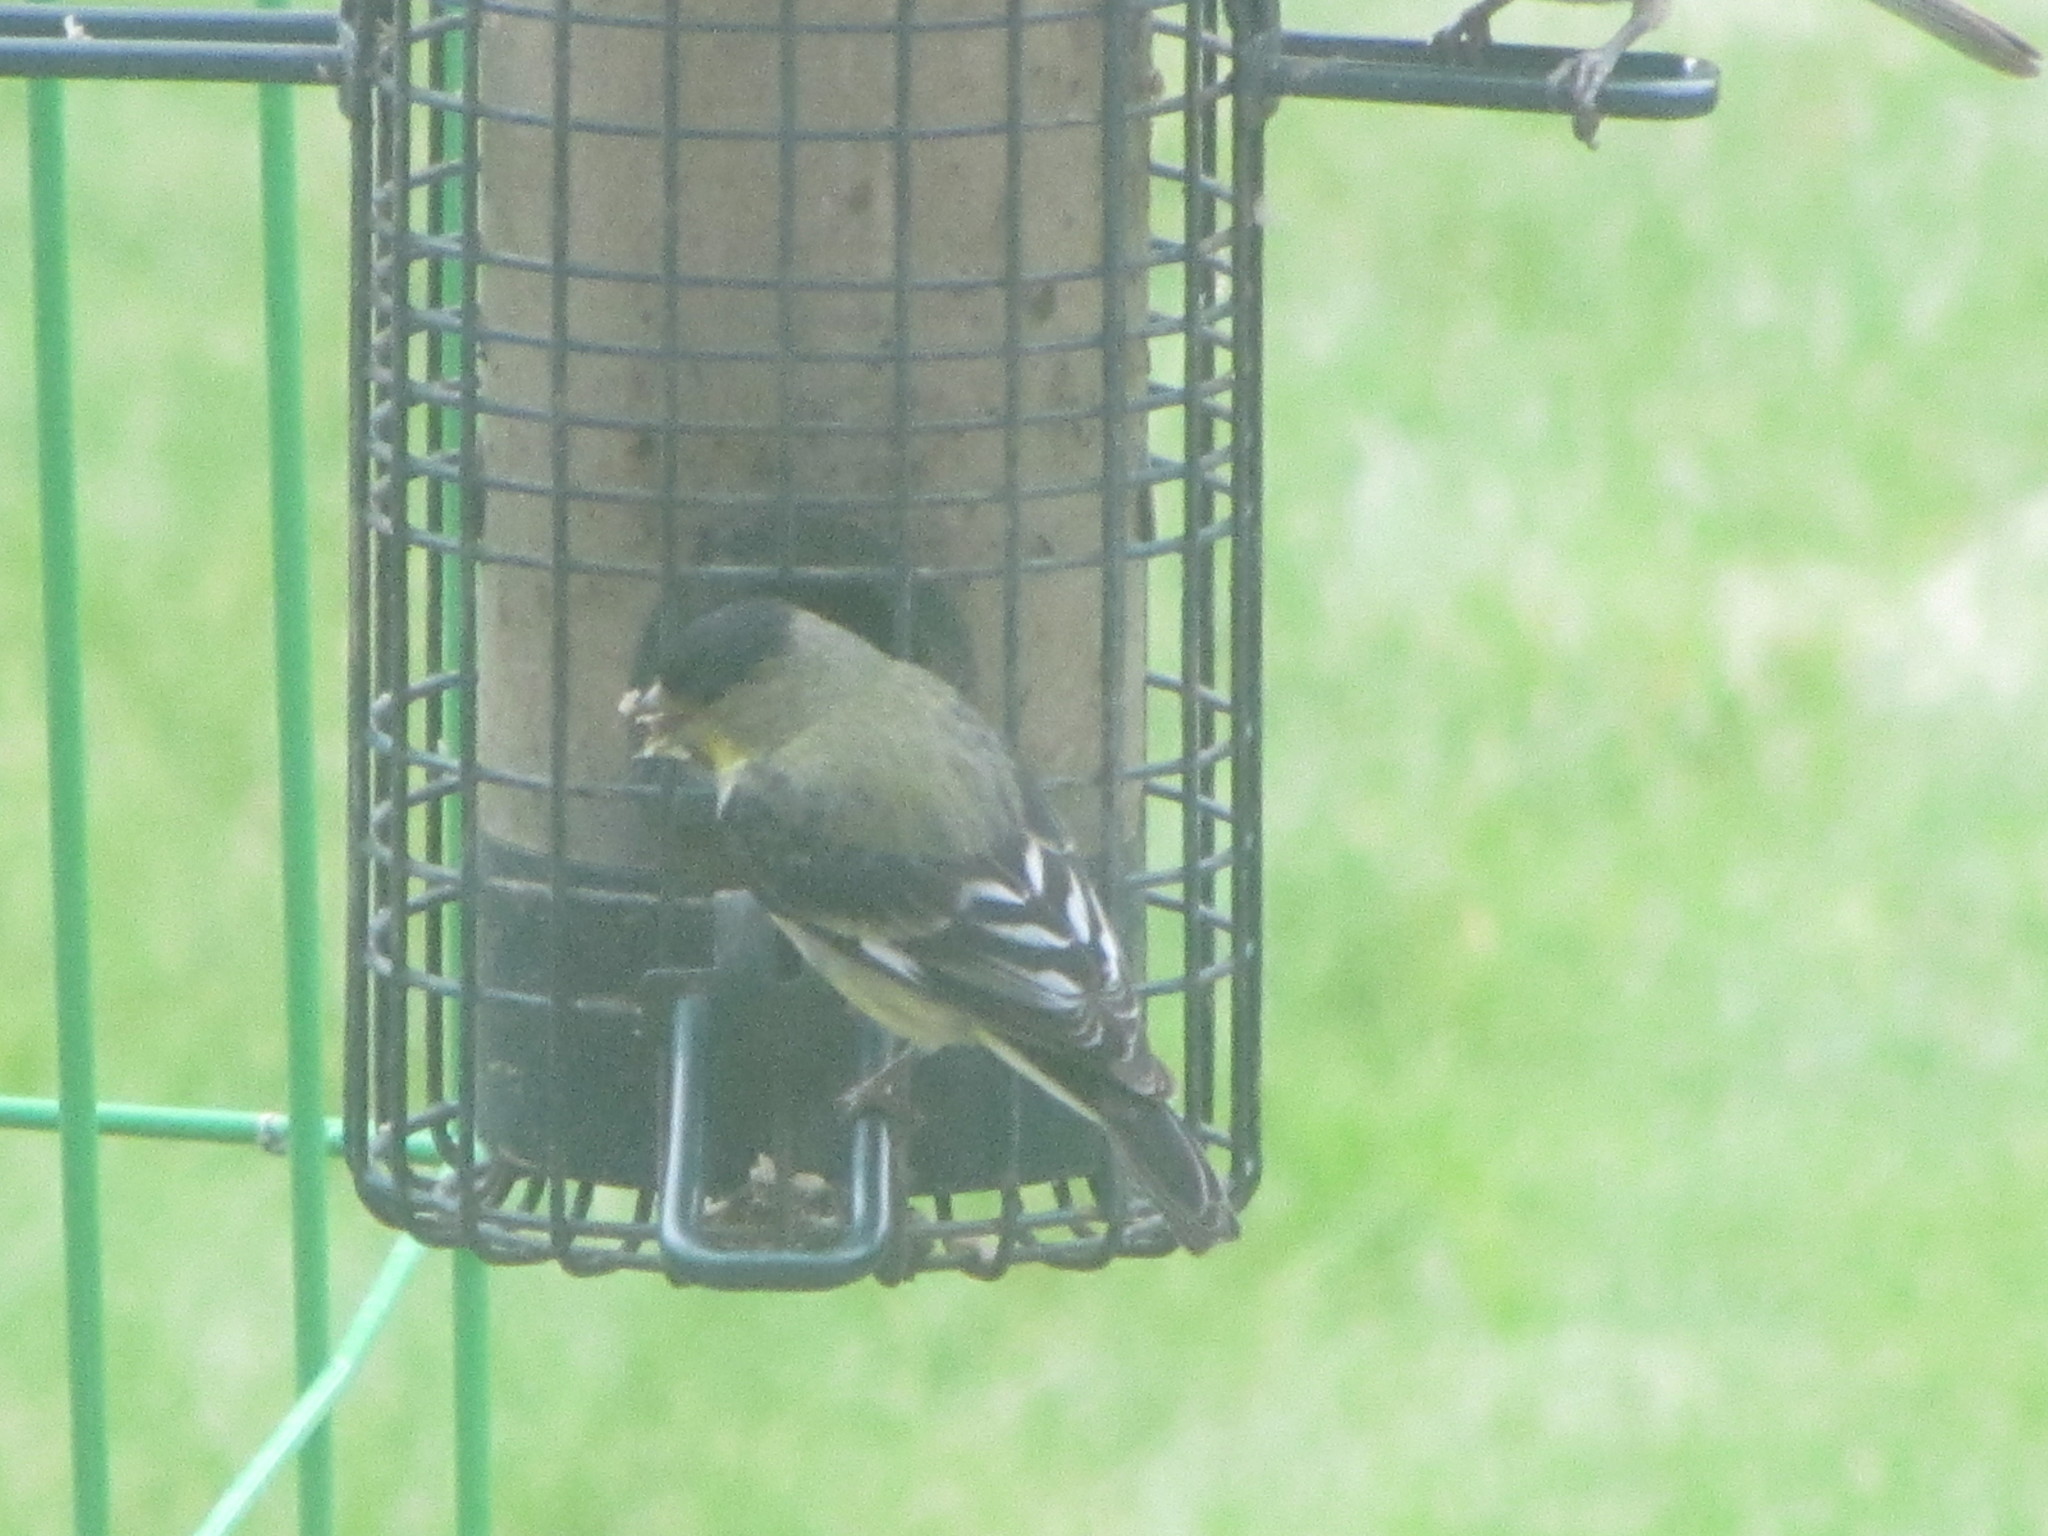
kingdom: Animalia
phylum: Chordata
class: Aves
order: Passeriformes
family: Fringillidae
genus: Spinus
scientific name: Spinus psaltria
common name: Lesser goldfinch
